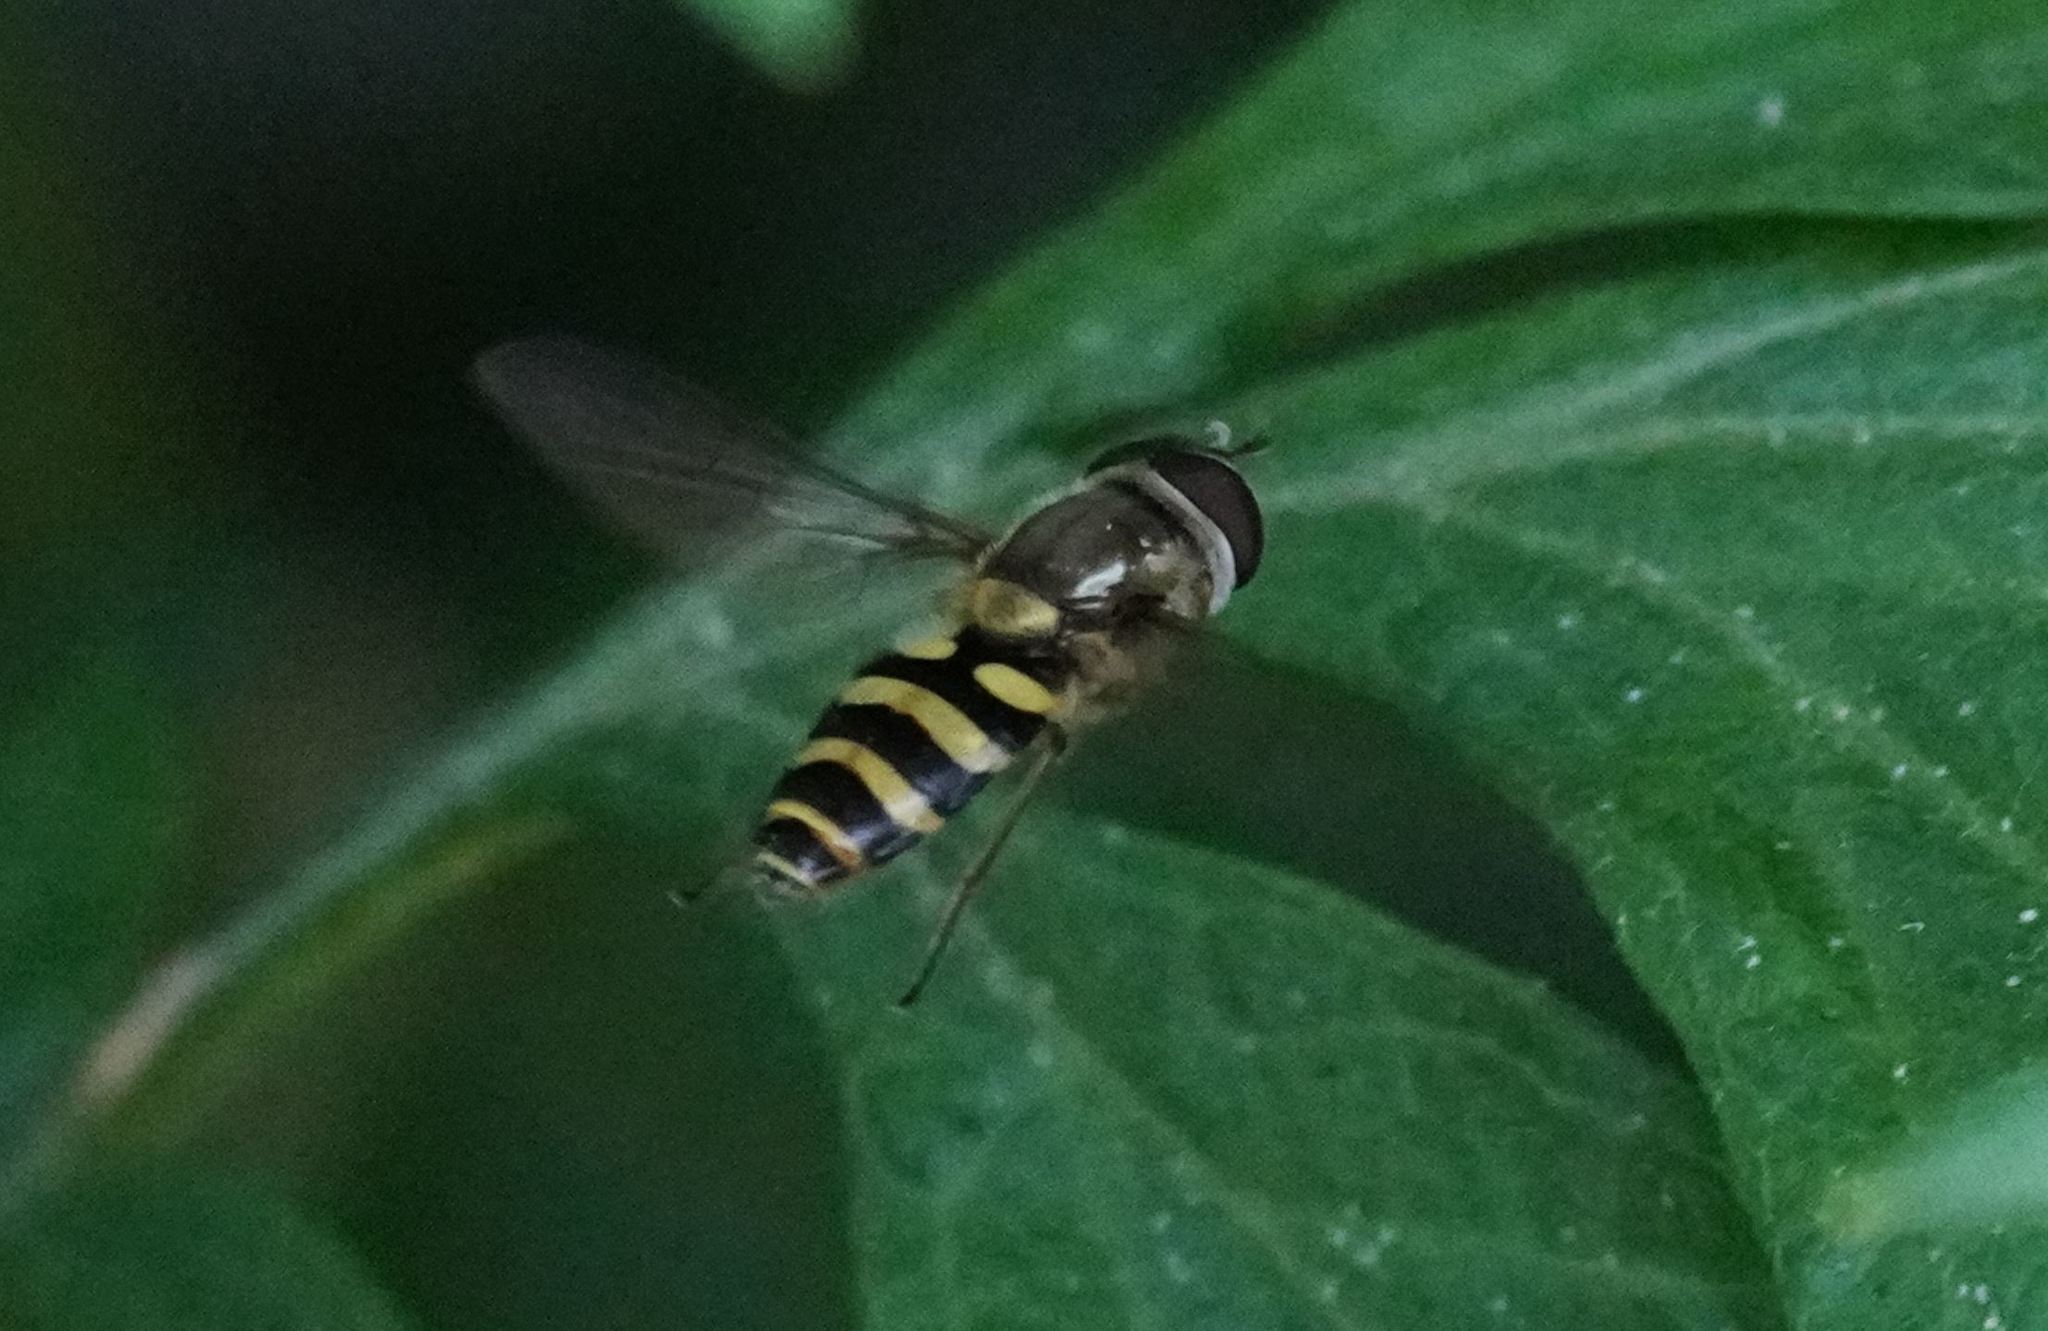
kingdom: Animalia
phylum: Arthropoda
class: Insecta
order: Diptera
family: Syrphidae
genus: Syrphus
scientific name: Syrphus
